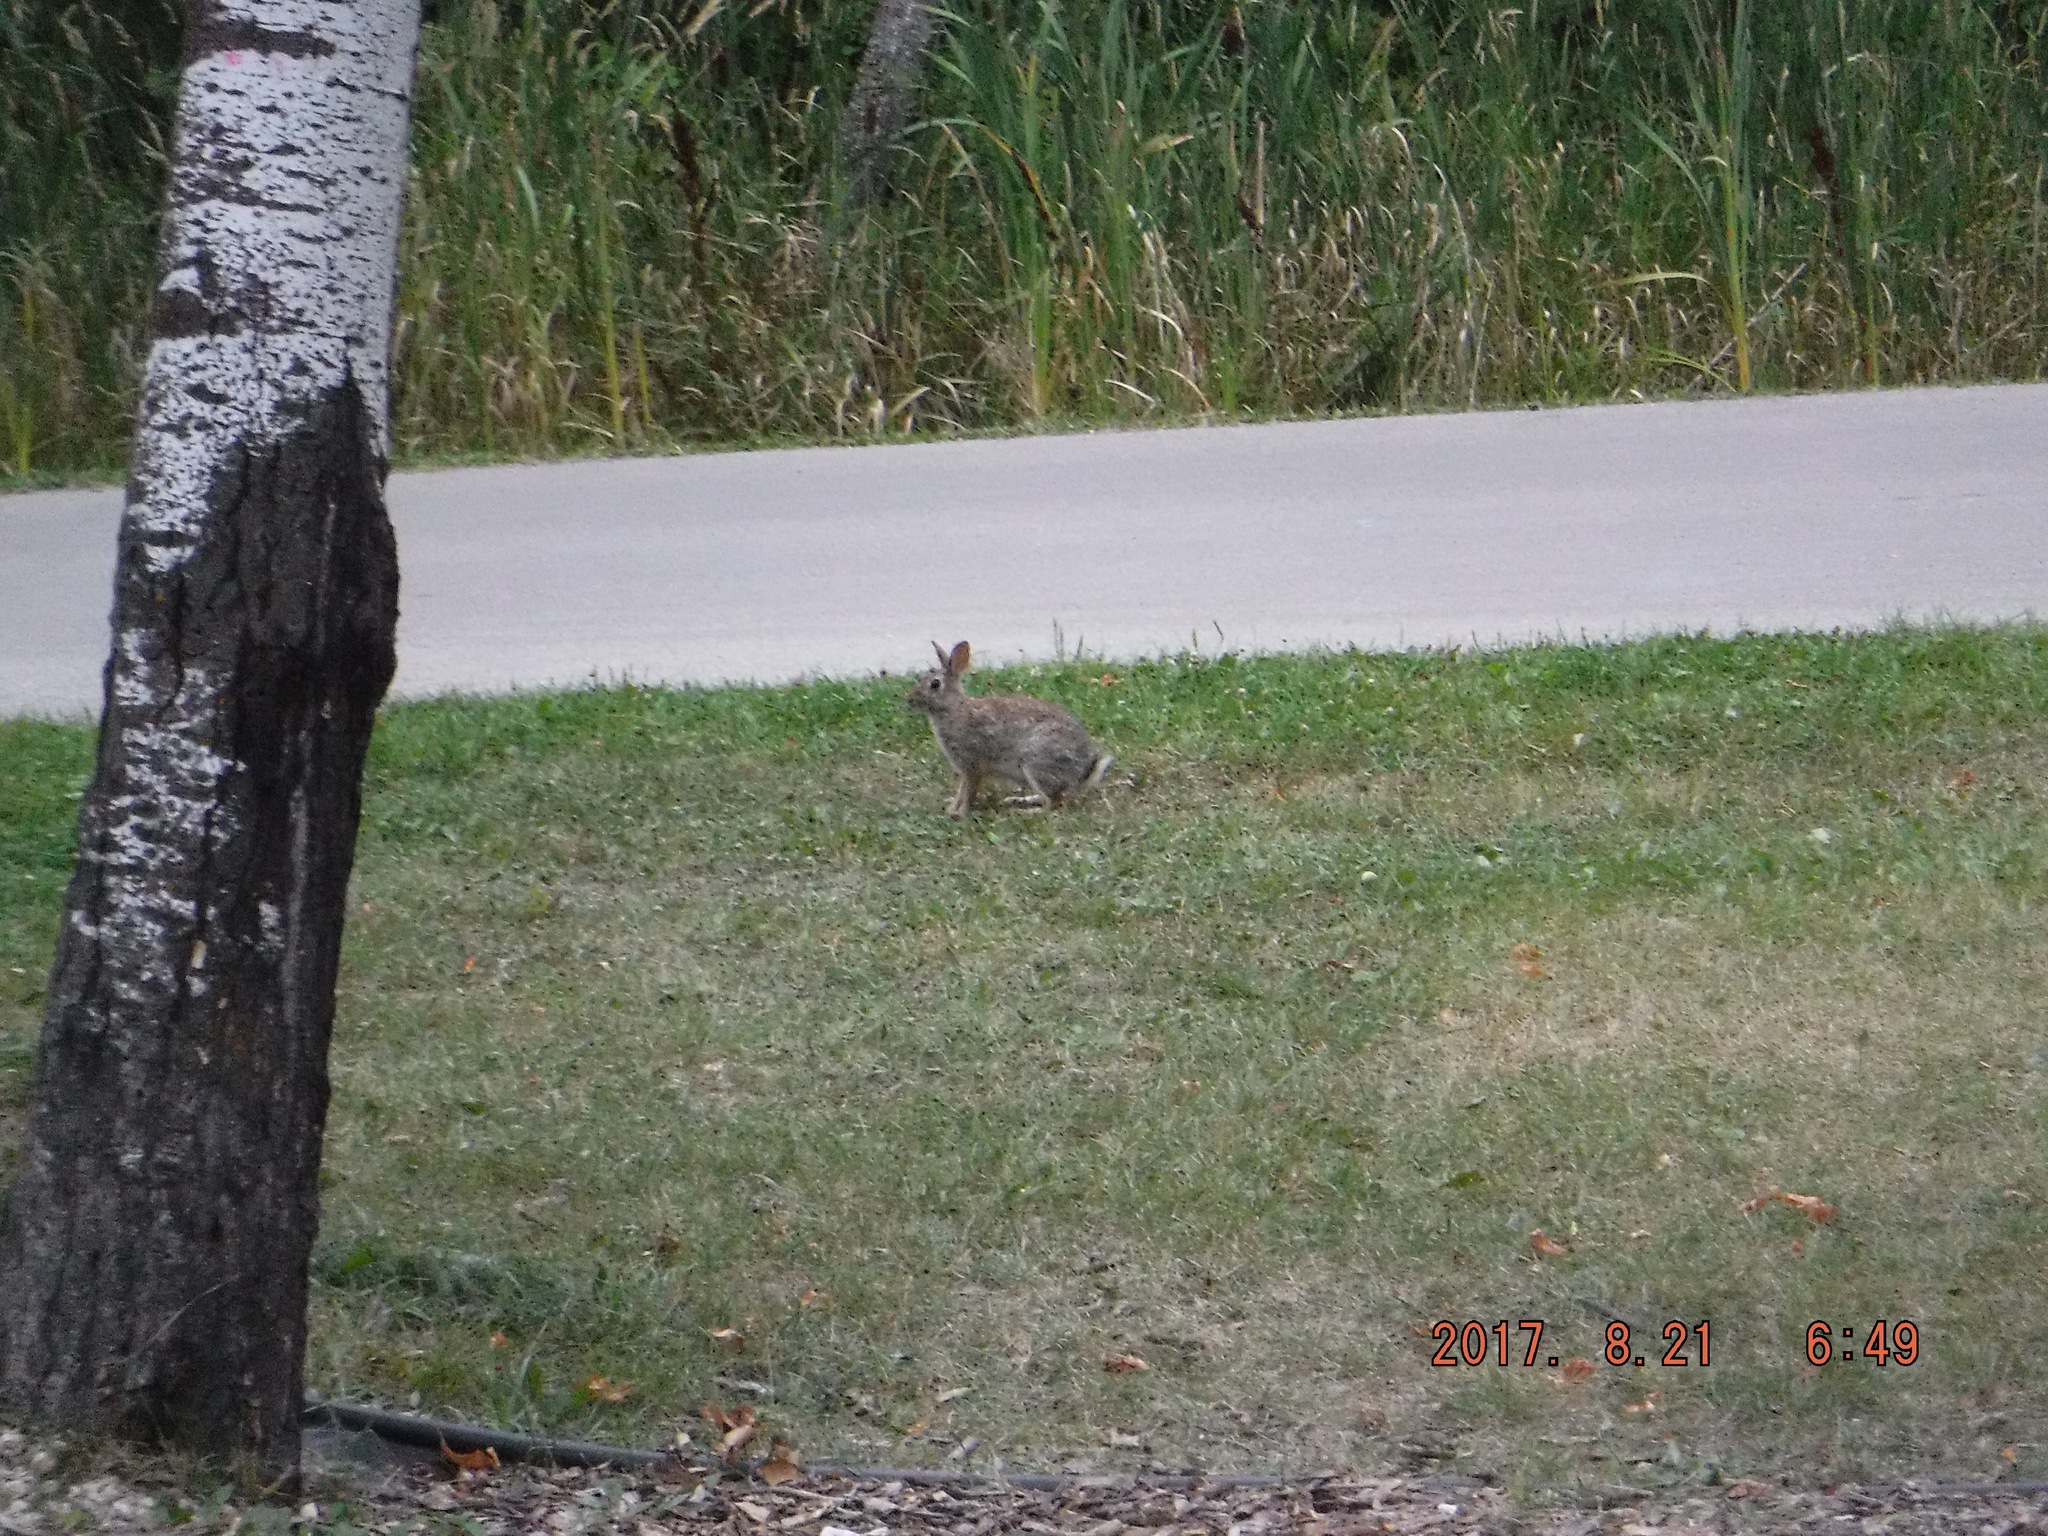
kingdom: Animalia
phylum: Chordata
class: Mammalia
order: Lagomorpha
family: Leporidae
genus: Sylvilagus
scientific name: Sylvilagus floridanus
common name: Eastern cottontail
